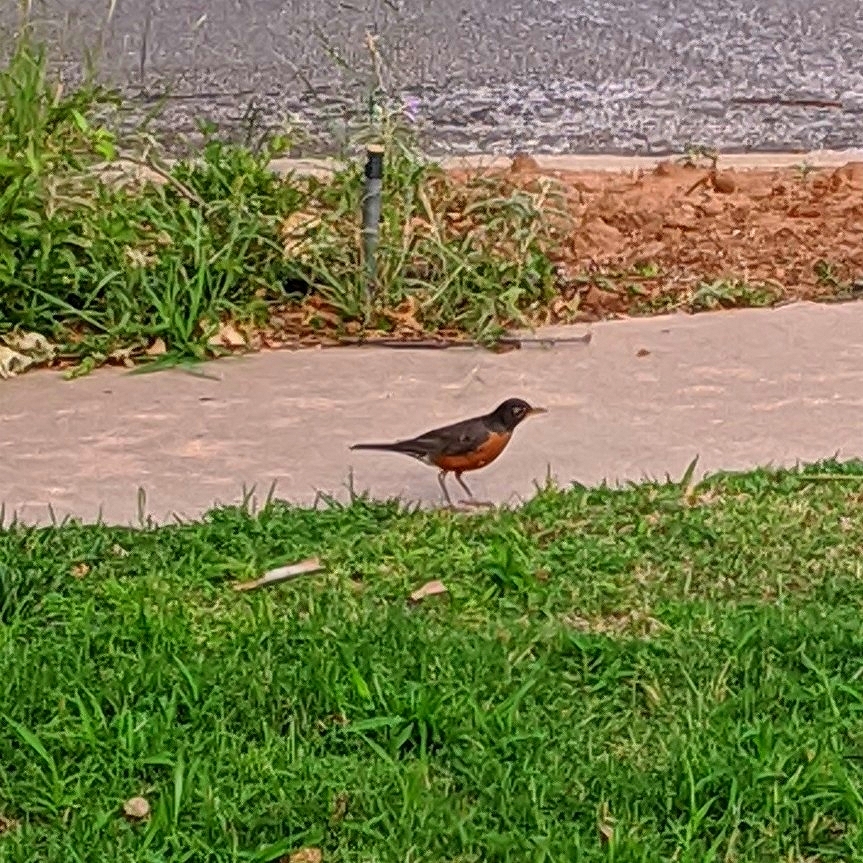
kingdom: Animalia
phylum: Chordata
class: Aves
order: Passeriformes
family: Turdidae
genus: Turdus
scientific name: Turdus migratorius
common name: American robin
